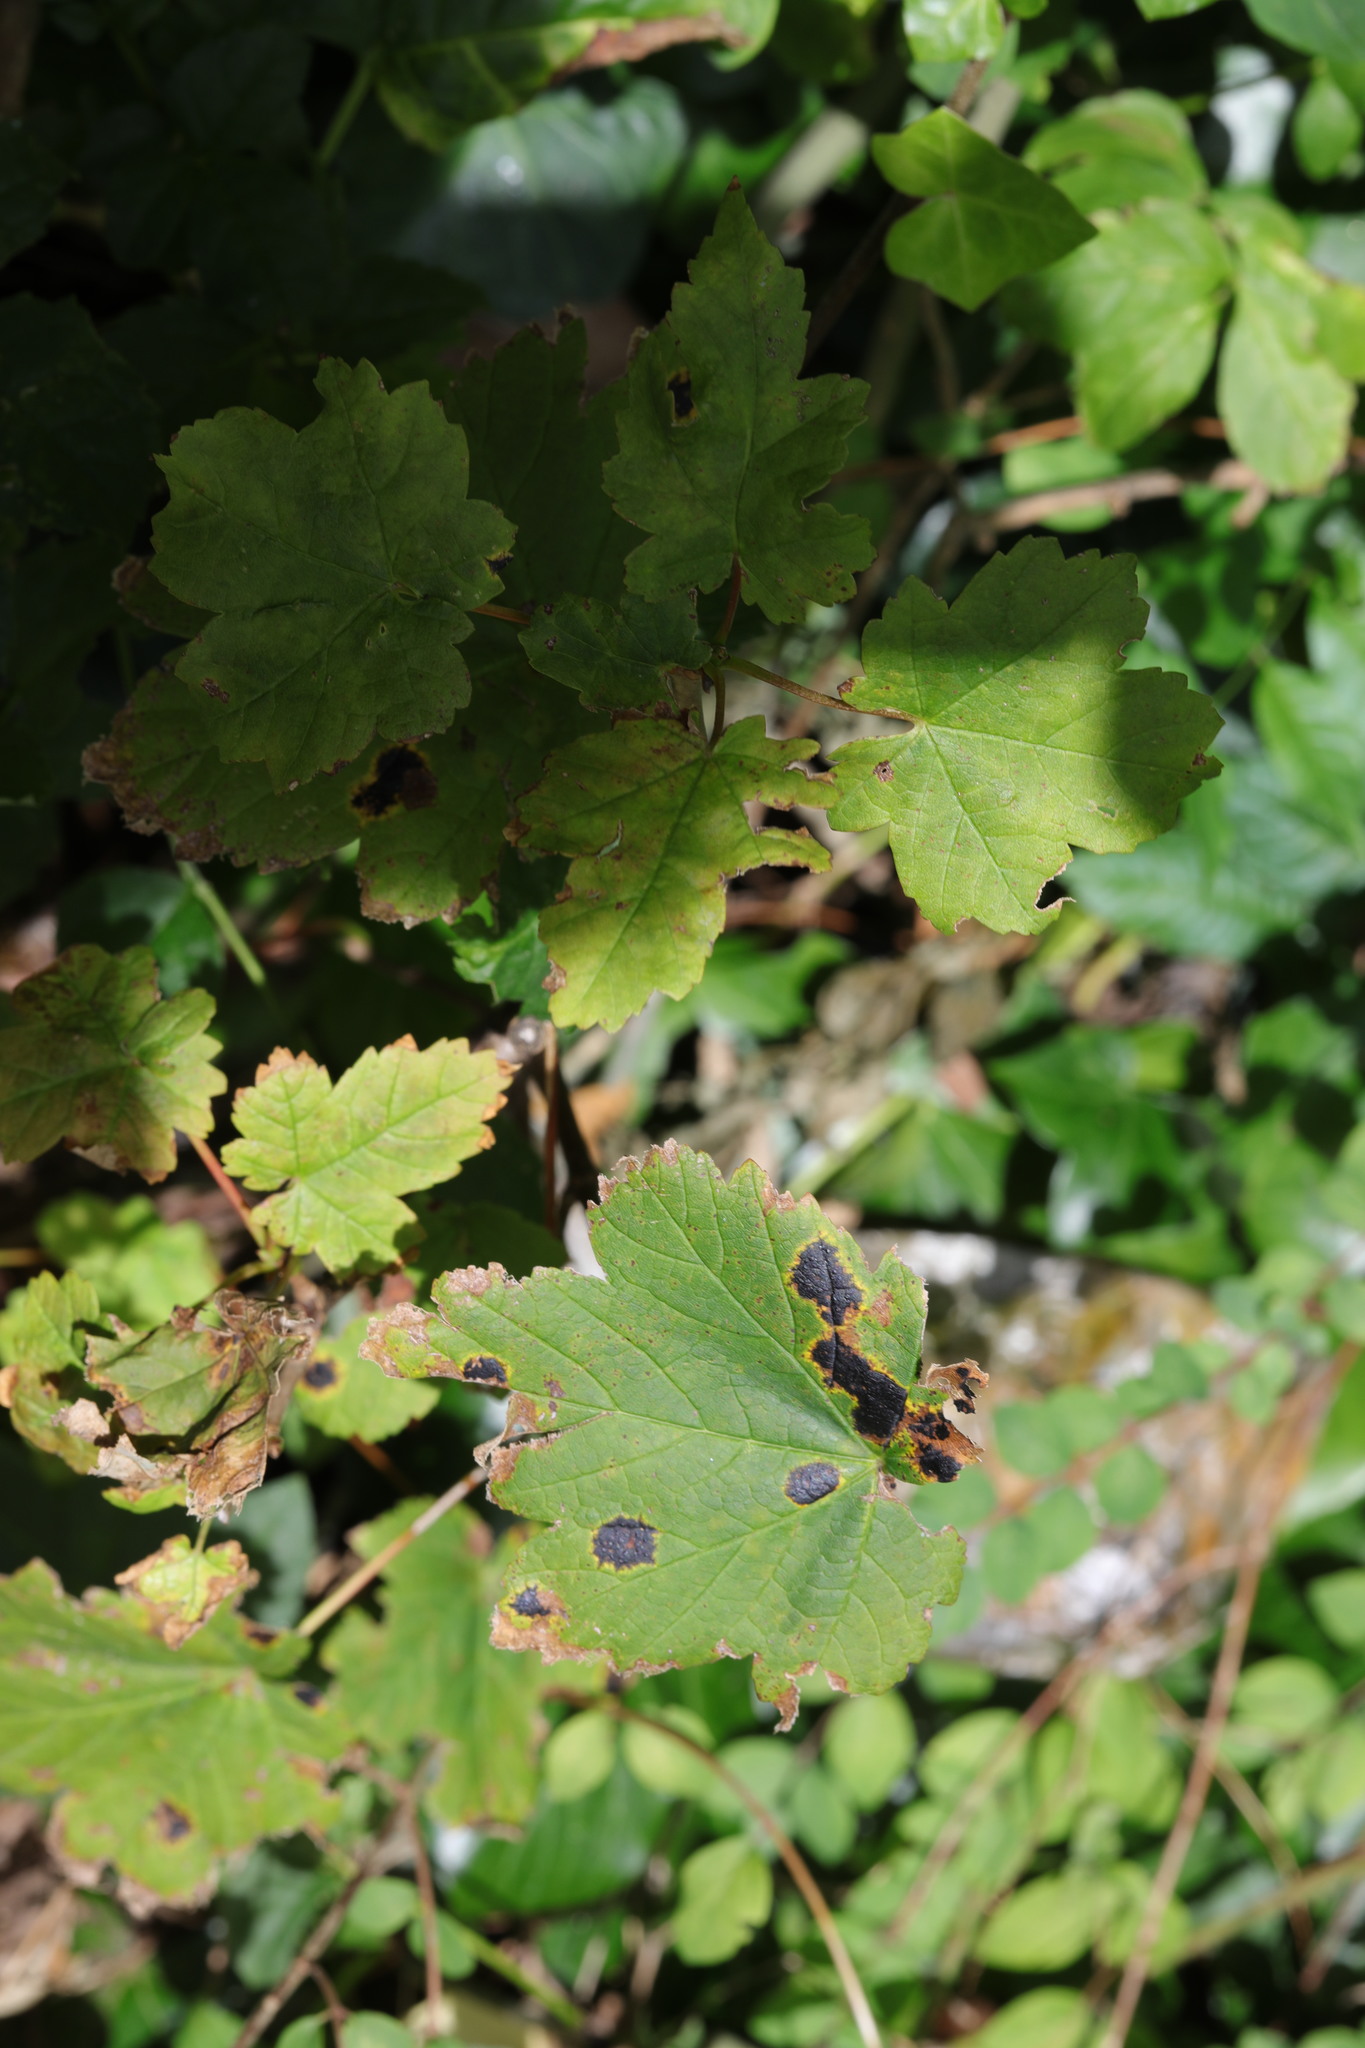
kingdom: Plantae
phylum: Tracheophyta
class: Magnoliopsida
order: Sapindales
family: Sapindaceae
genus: Acer
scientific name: Acer pseudoplatanus
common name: Sycamore
